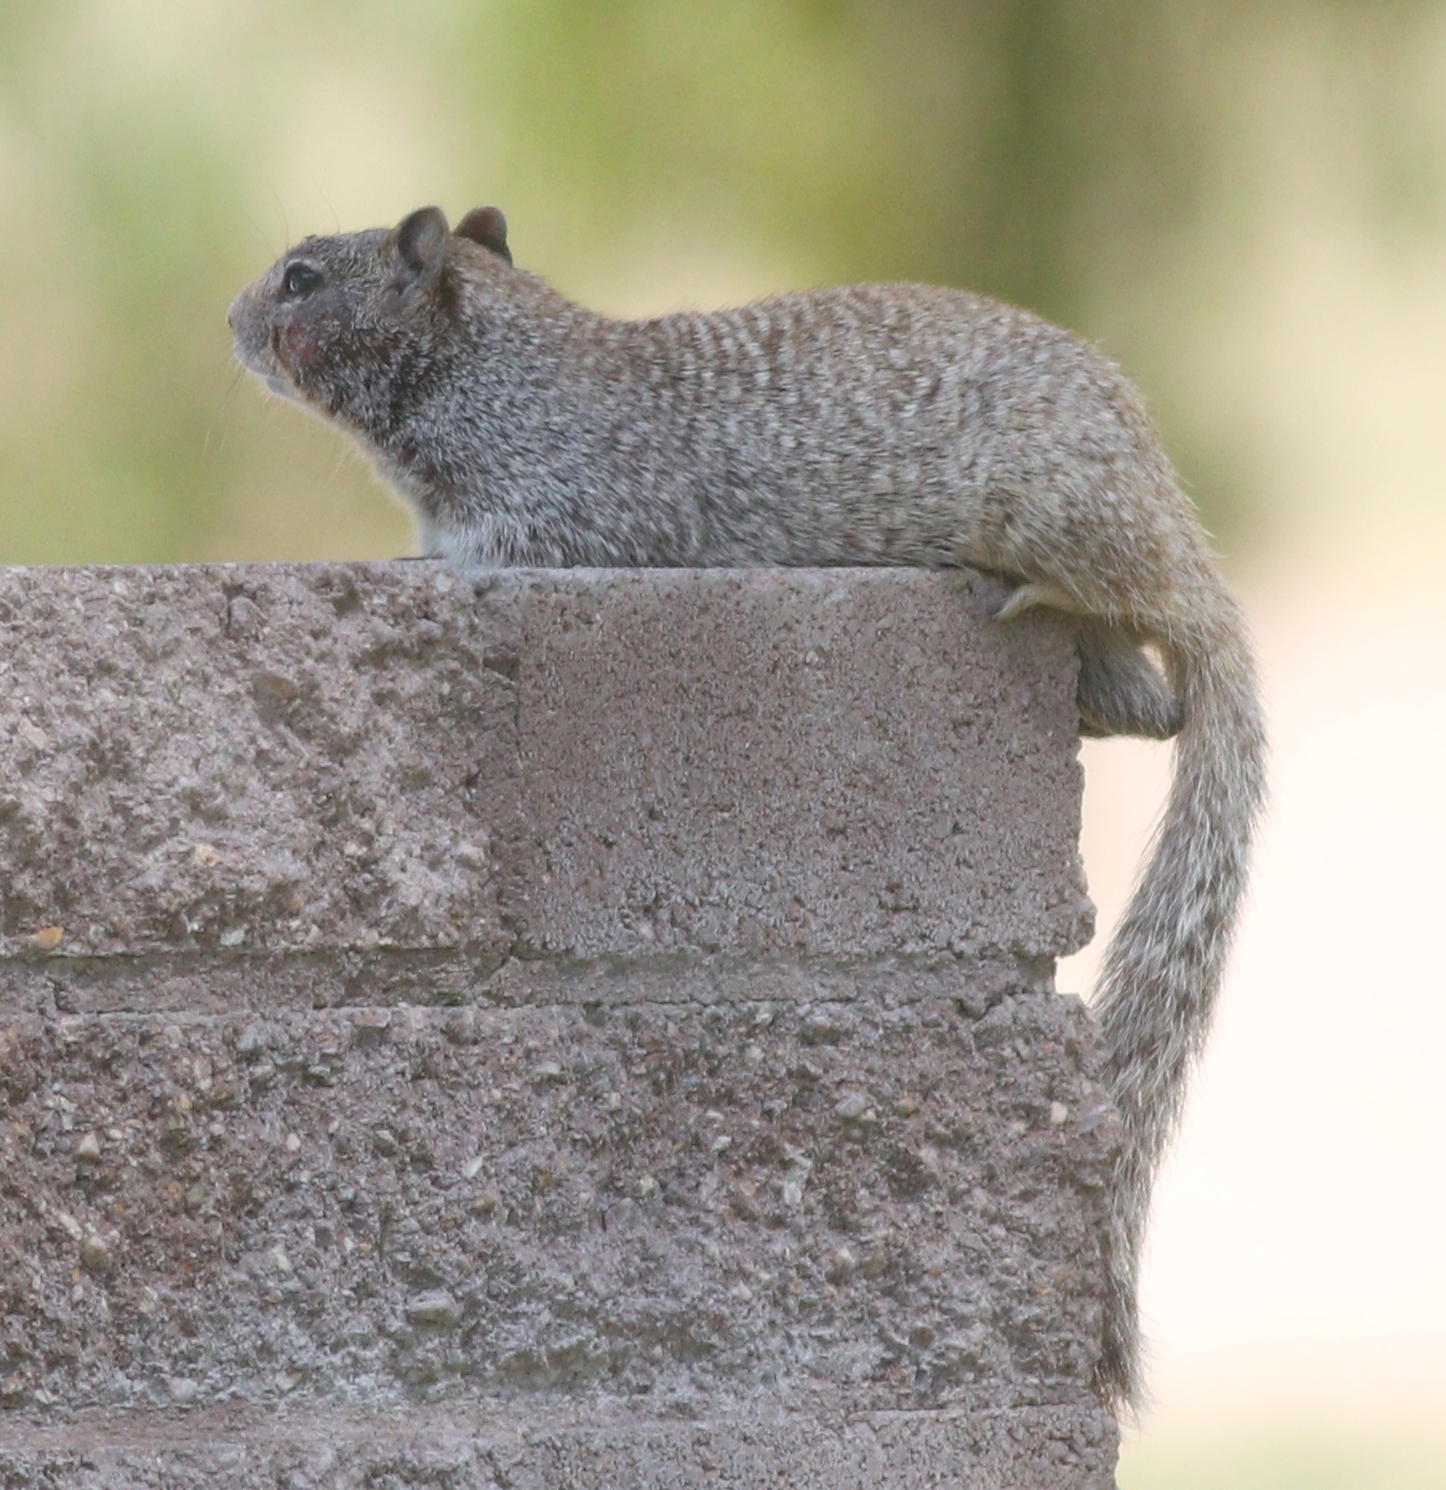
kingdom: Animalia
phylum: Chordata
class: Mammalia
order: Rodentia
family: Sciuridae
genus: Otospermophilus
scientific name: Otospermophilus variegatus
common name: Rock squirrel
